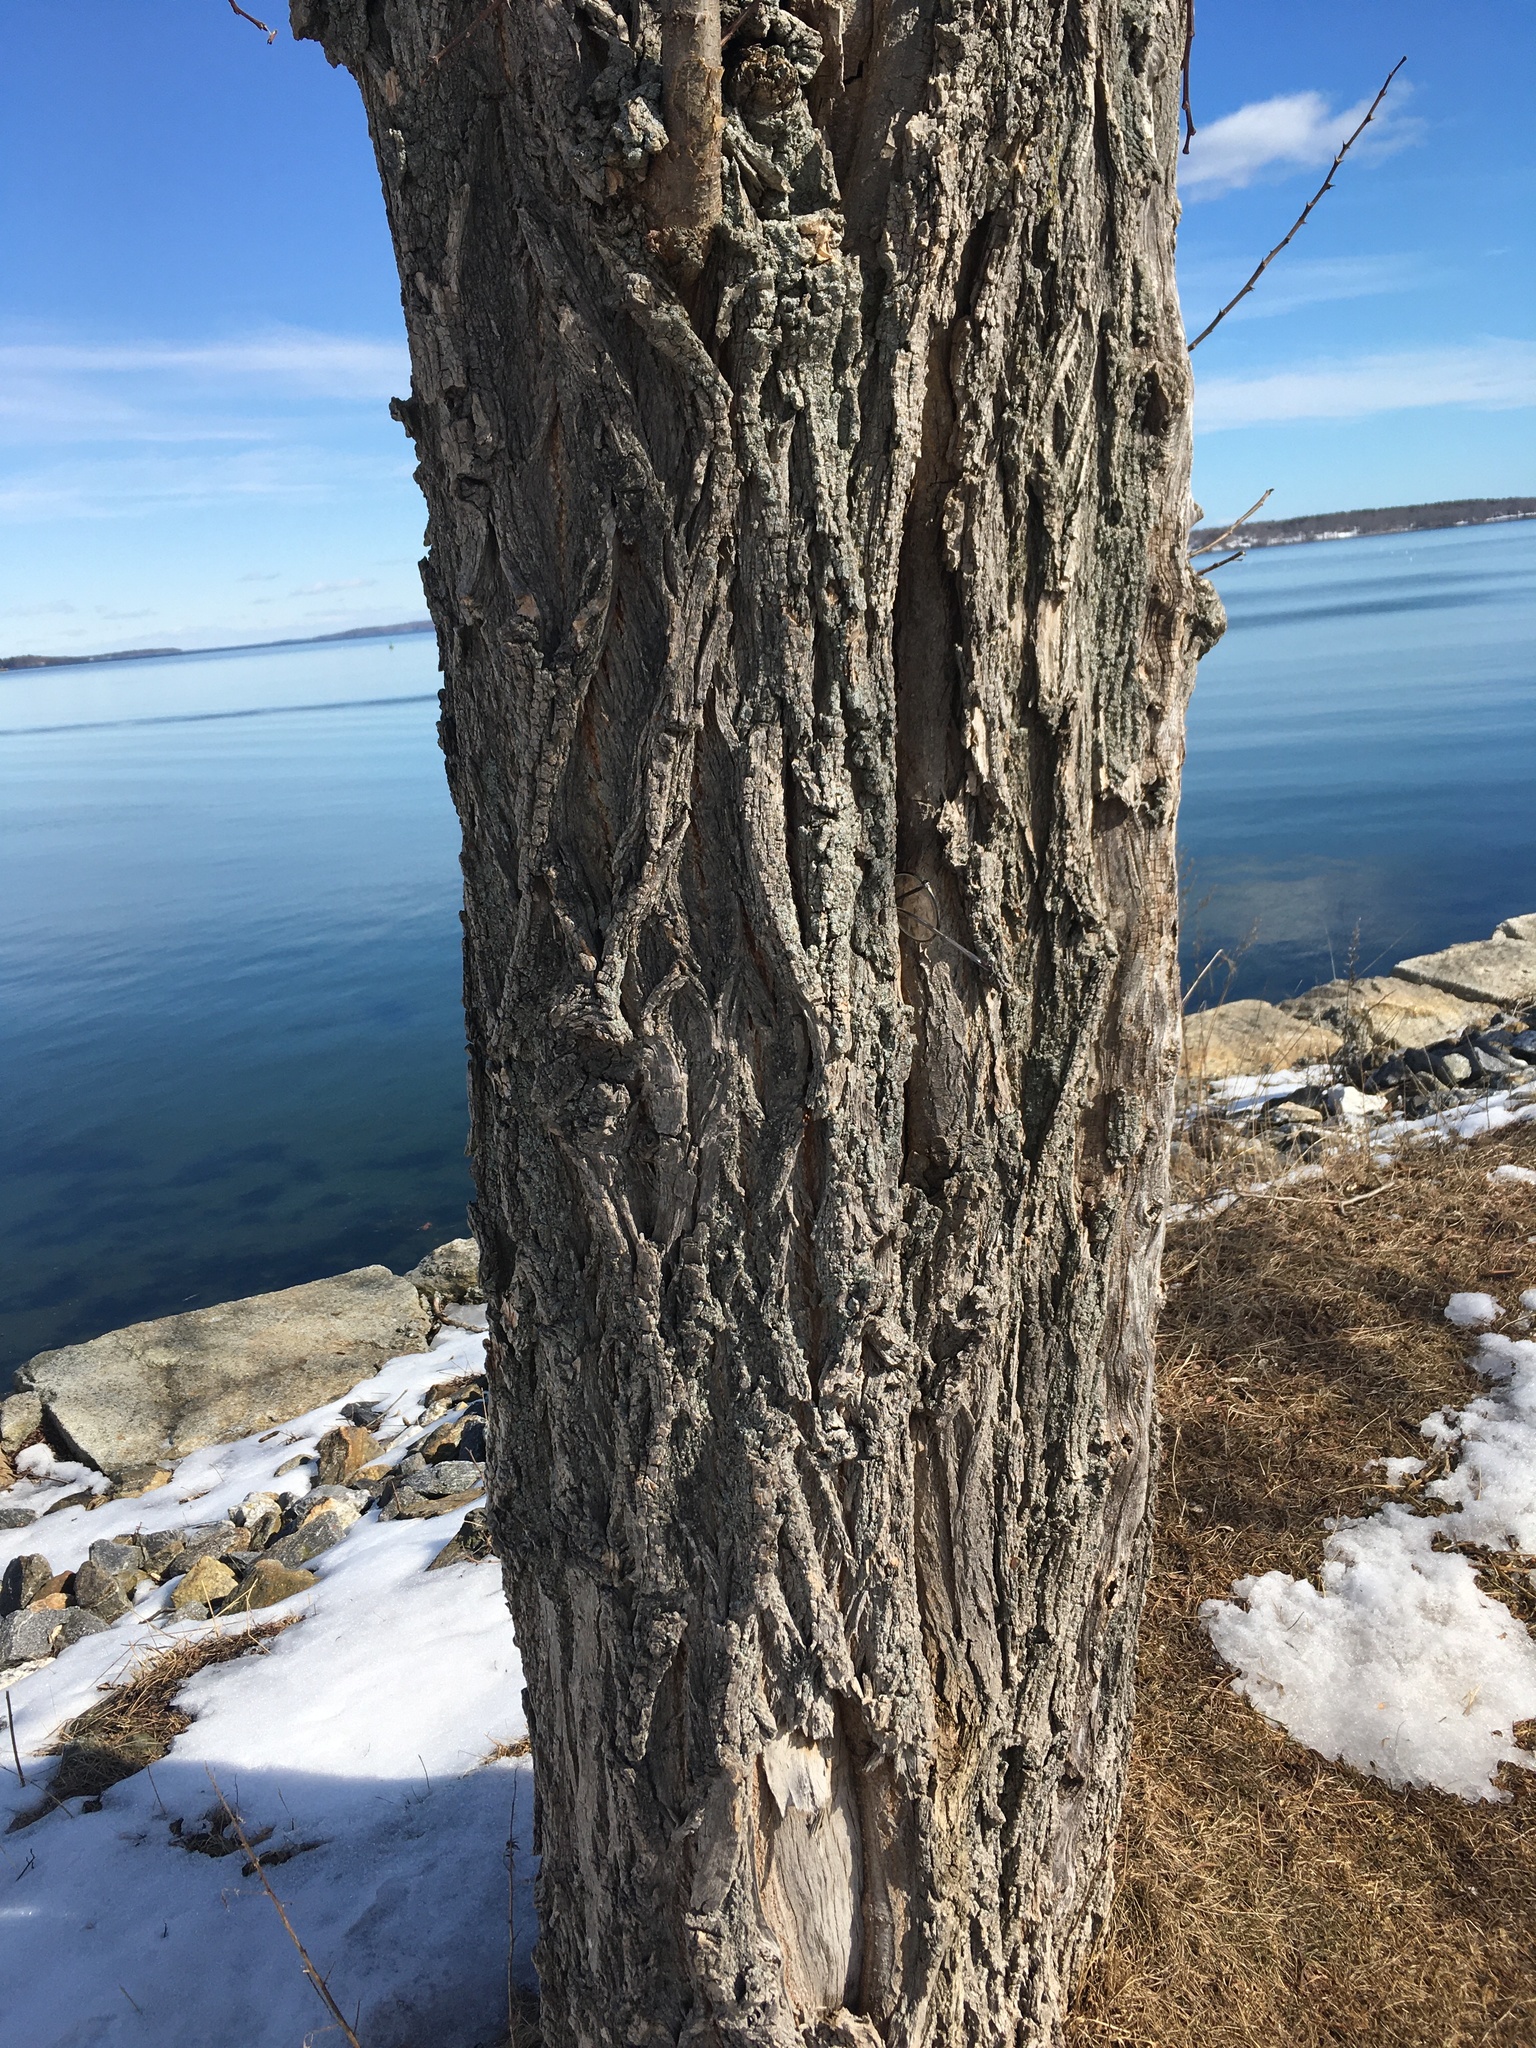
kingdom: Plantae
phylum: Tracheophyta
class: Magnoliopsida
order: Fabales
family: Fabaceae
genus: Robinia
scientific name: Robinia pseudoacacia
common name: Black locust
